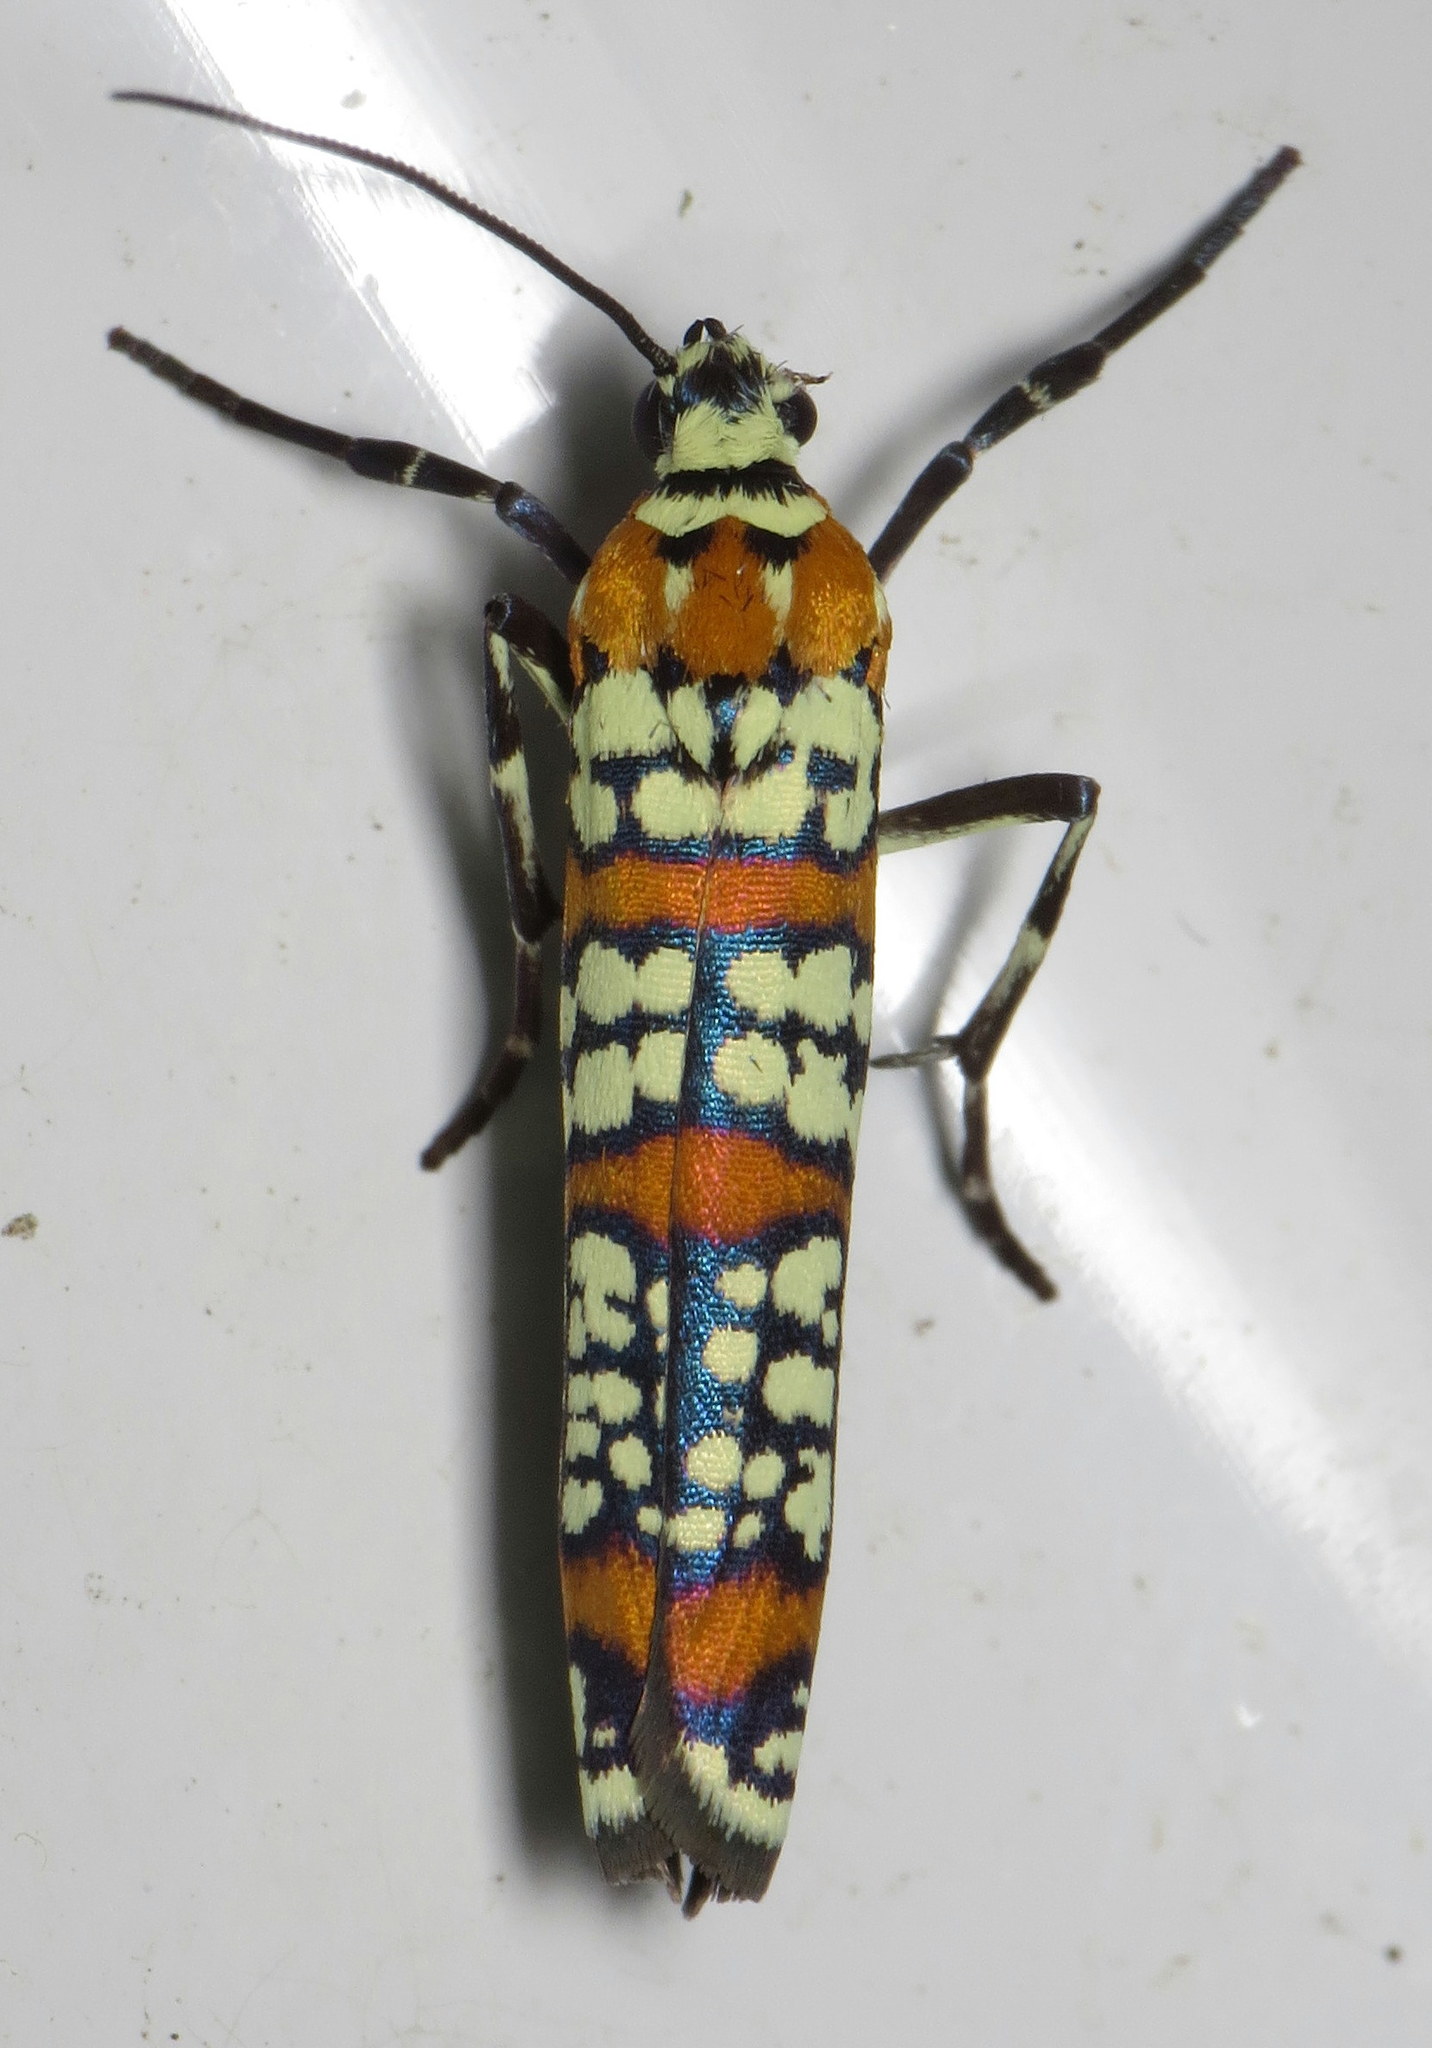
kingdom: Animalia
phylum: Arthropoda
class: Insecta
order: Lepidoptera
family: Attevidae
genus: Atteva
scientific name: Atteva punctella
